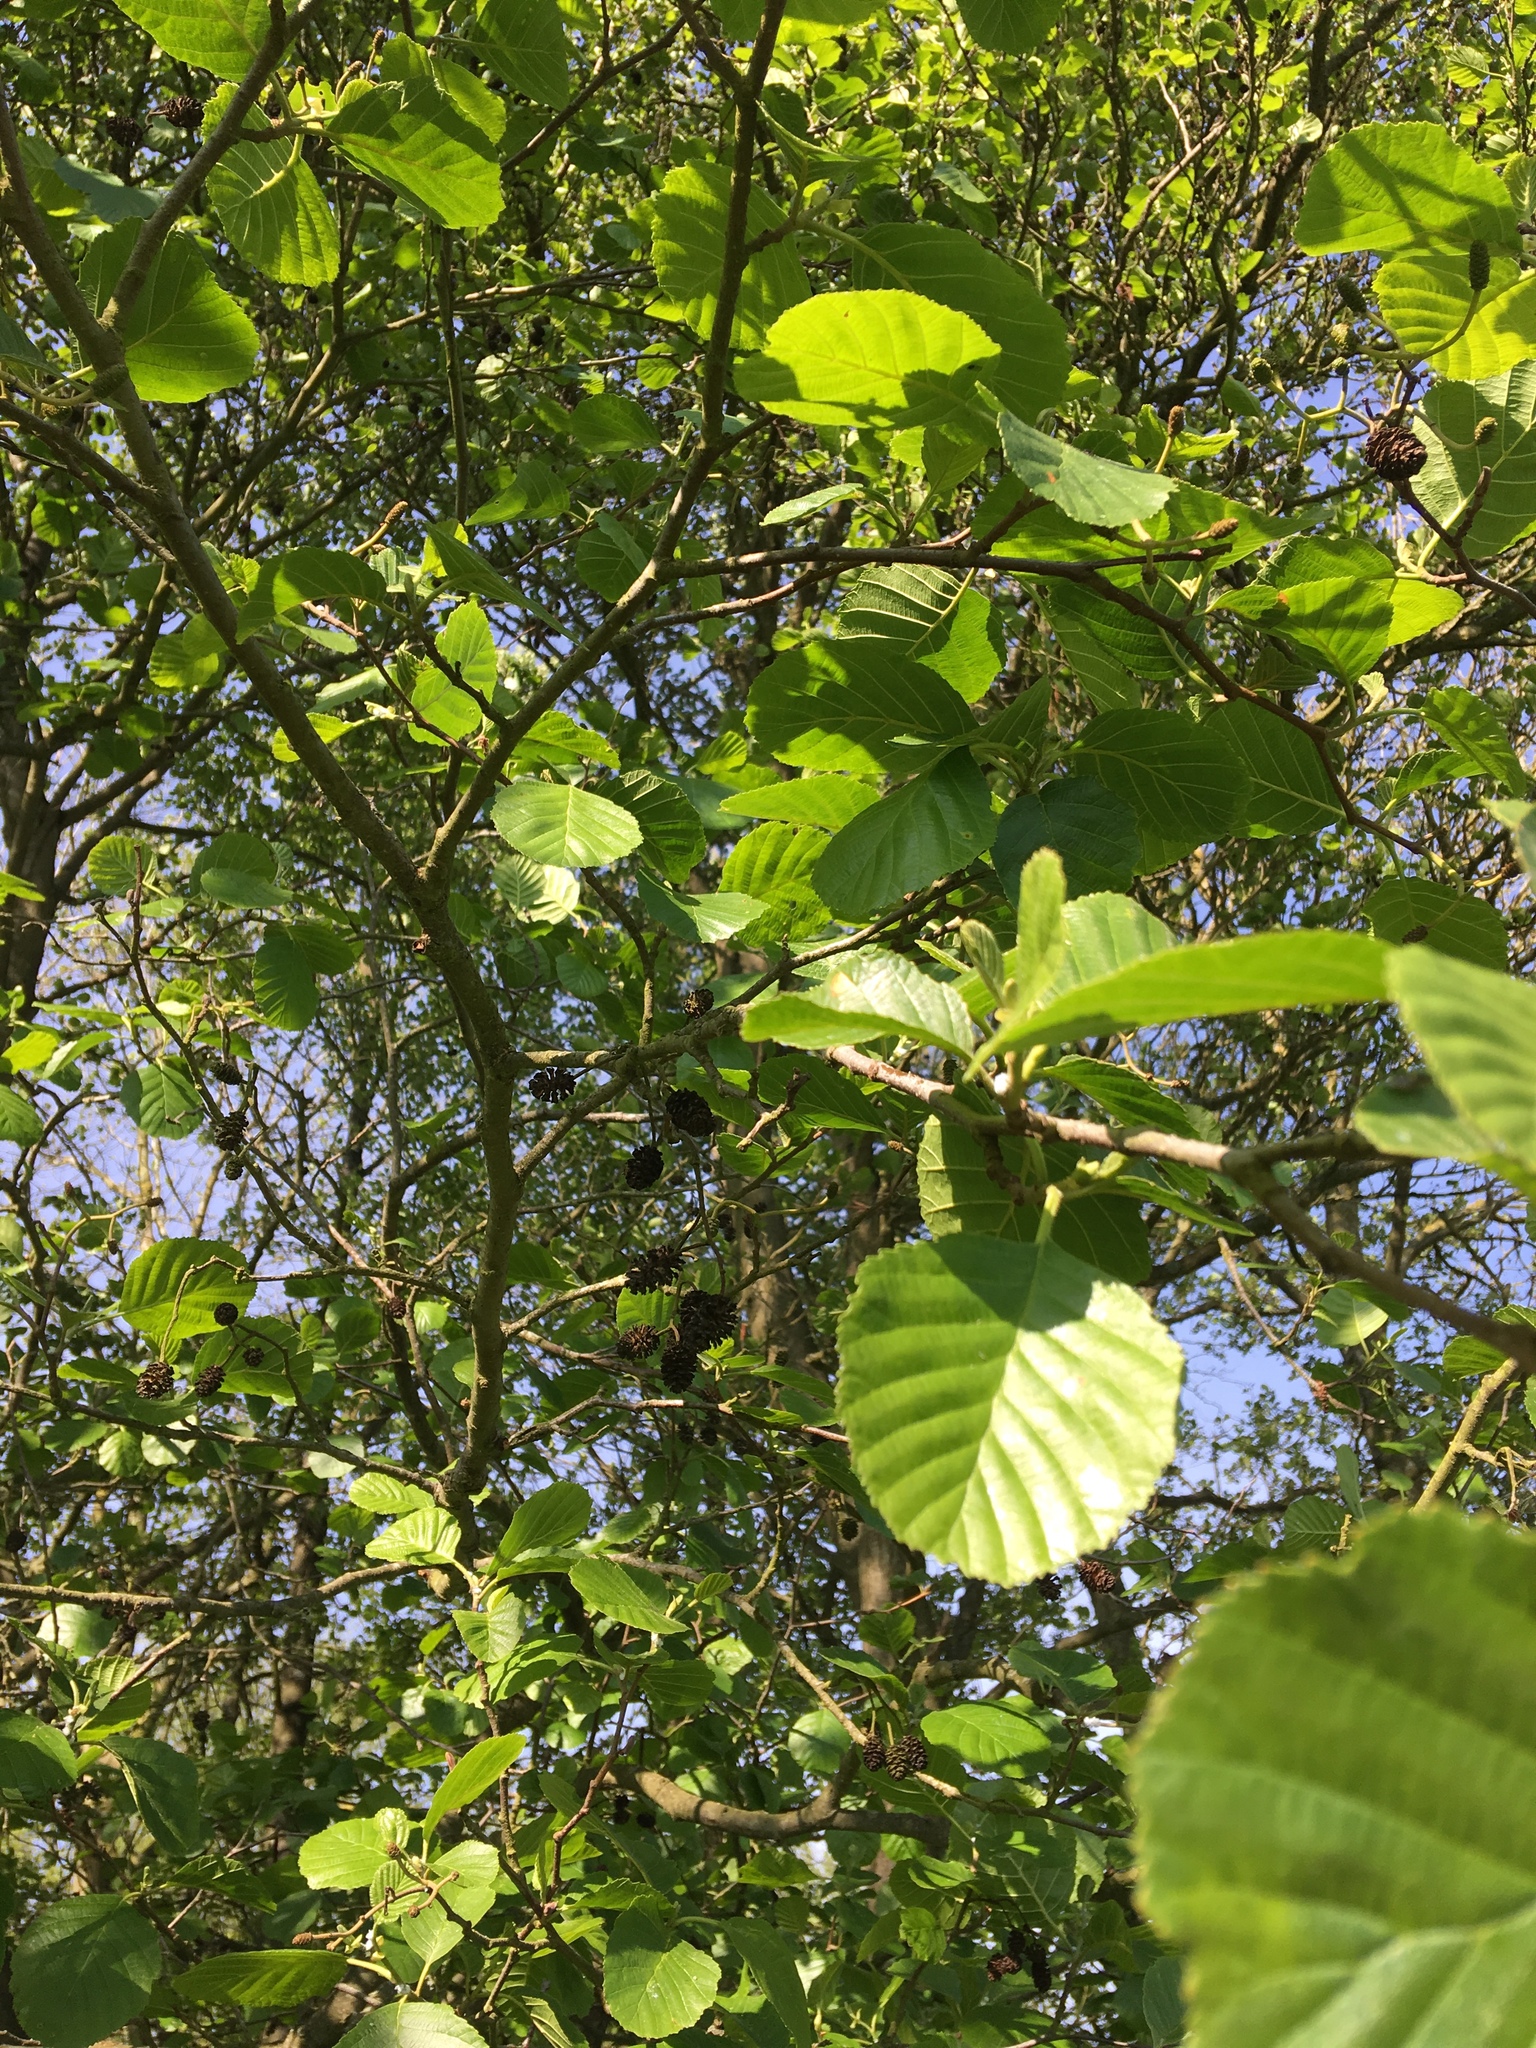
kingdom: Plantae
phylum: Tracheophyta
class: Magnoliopsida
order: Fagales
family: Betulaceae
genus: Alnus
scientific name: Alnus glutinosa
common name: Black alder
